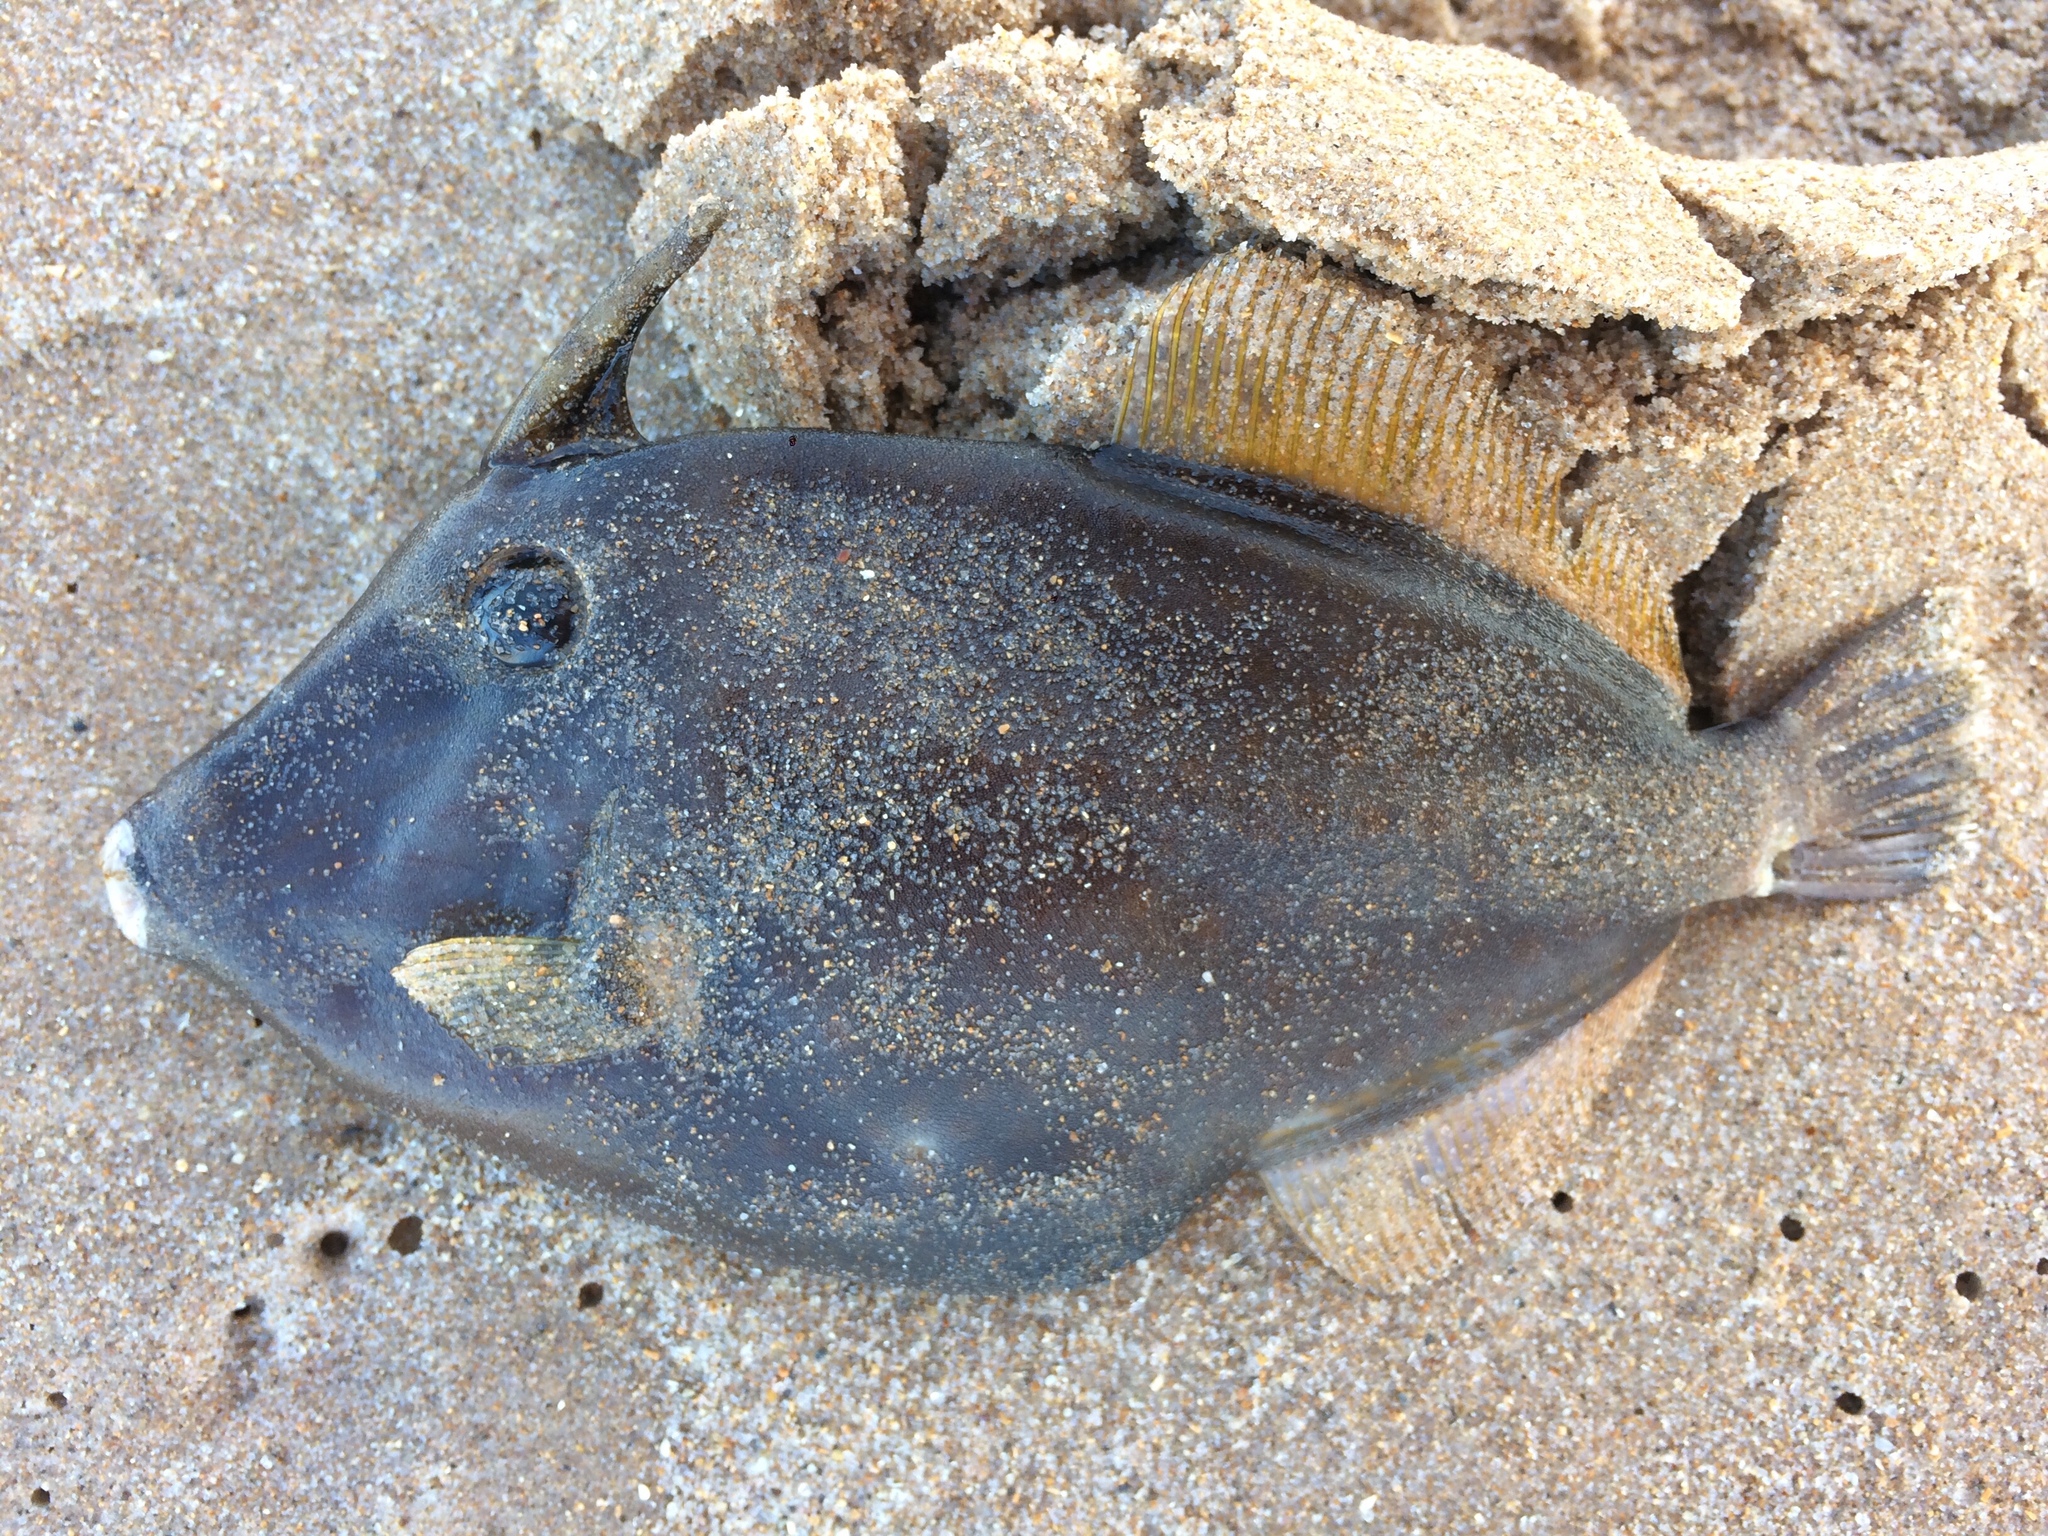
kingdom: Animalia
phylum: Chordata
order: Tetraodontiformes
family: Monacanthidae
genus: Cantherhines
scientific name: Cantherhines macrocerus
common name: Whitespotted filefish
